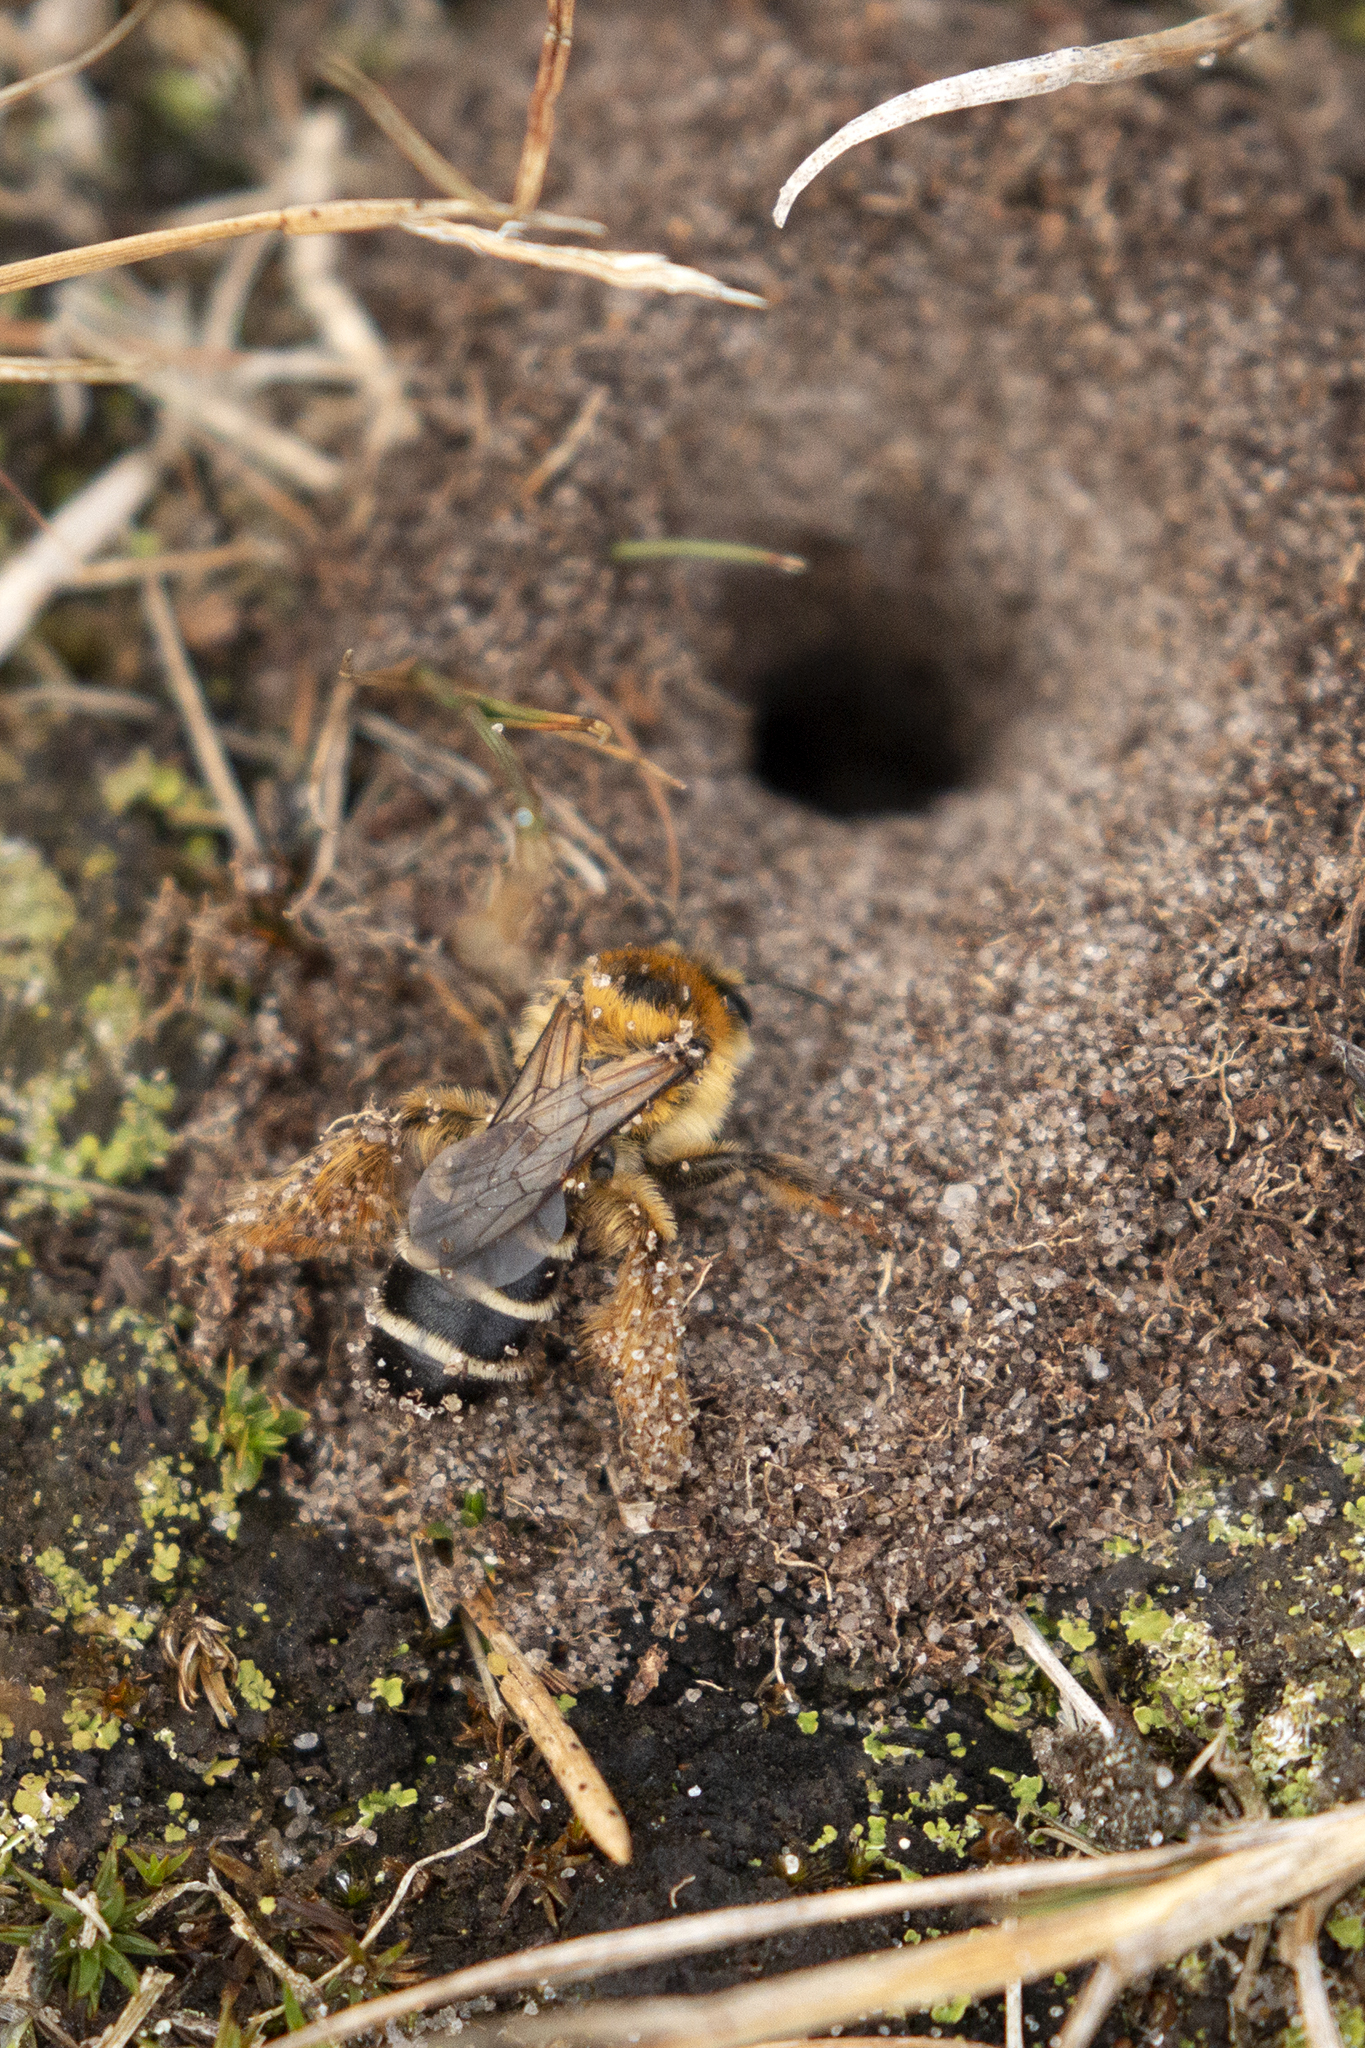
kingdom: Animalia
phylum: Arthropoda
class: Insecta
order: Hymenoptera
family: Melittidae
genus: Dasypoda
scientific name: Dasypoda hirtipes
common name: Pantaloon bee
